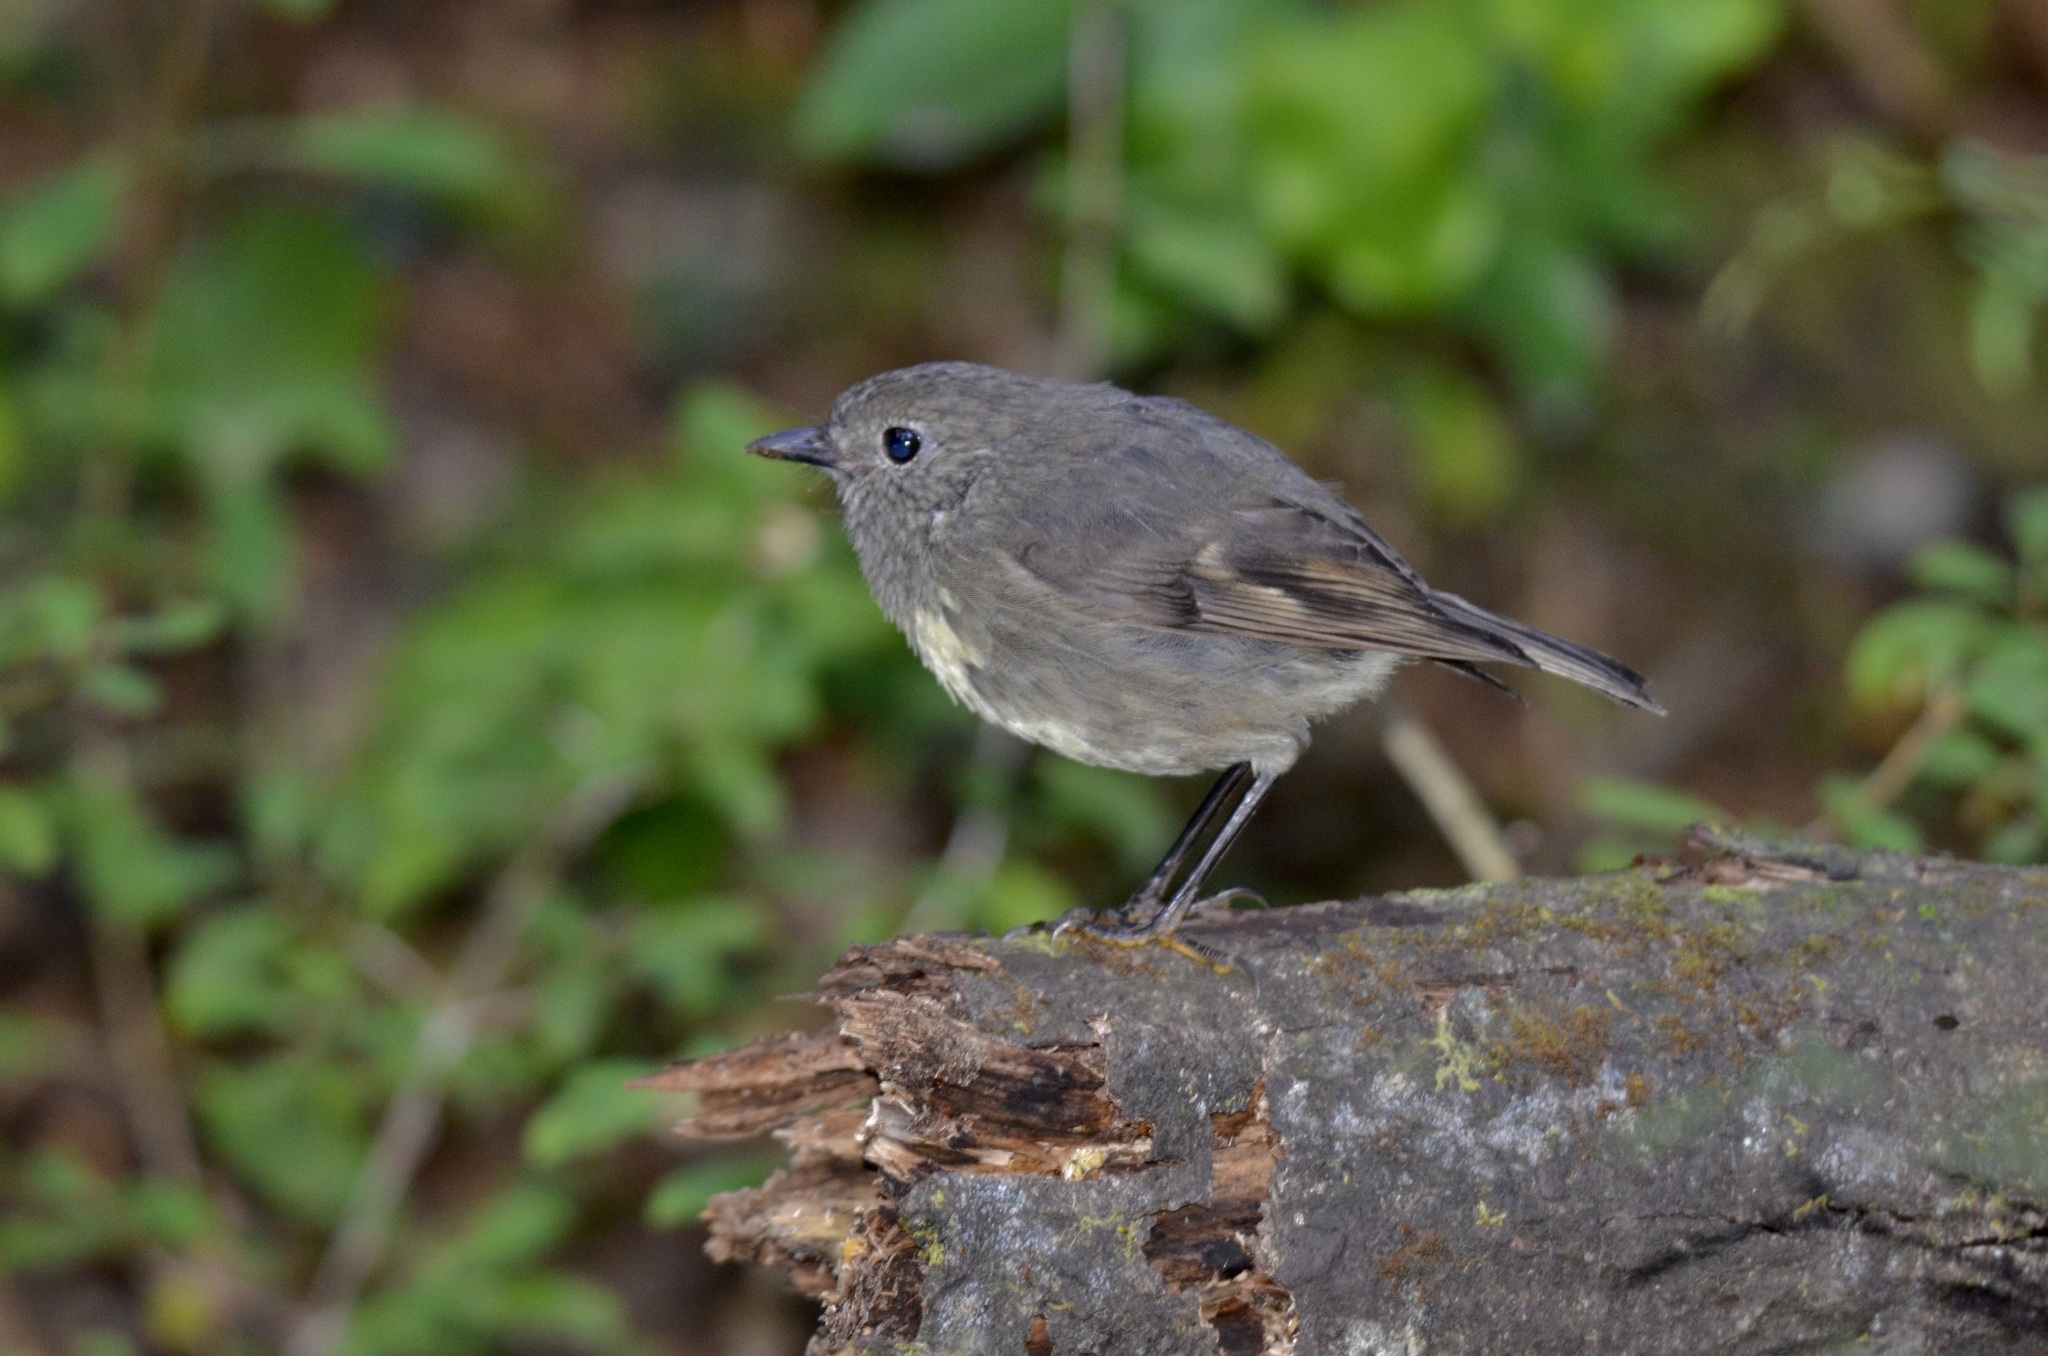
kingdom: Animalia
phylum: Chordata
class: Aves
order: Passeriformes
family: Petroicidae
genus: Petroica
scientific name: Petroica australis
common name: New zealand robin
